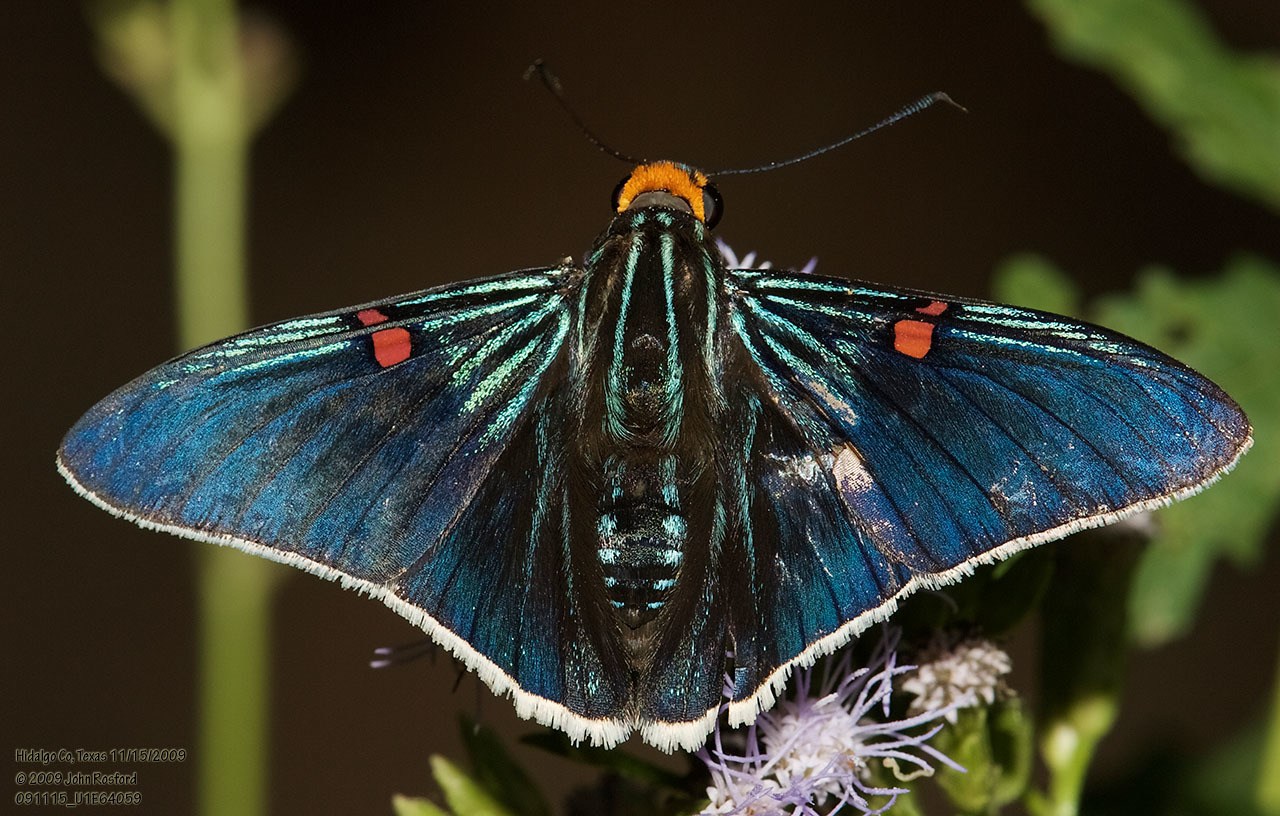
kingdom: Animalia
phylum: Arthropoda
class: Insecta
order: Lepidoptera
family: Hesperiidae
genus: Phocides
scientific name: Phocides lilea
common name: Guava skipper
